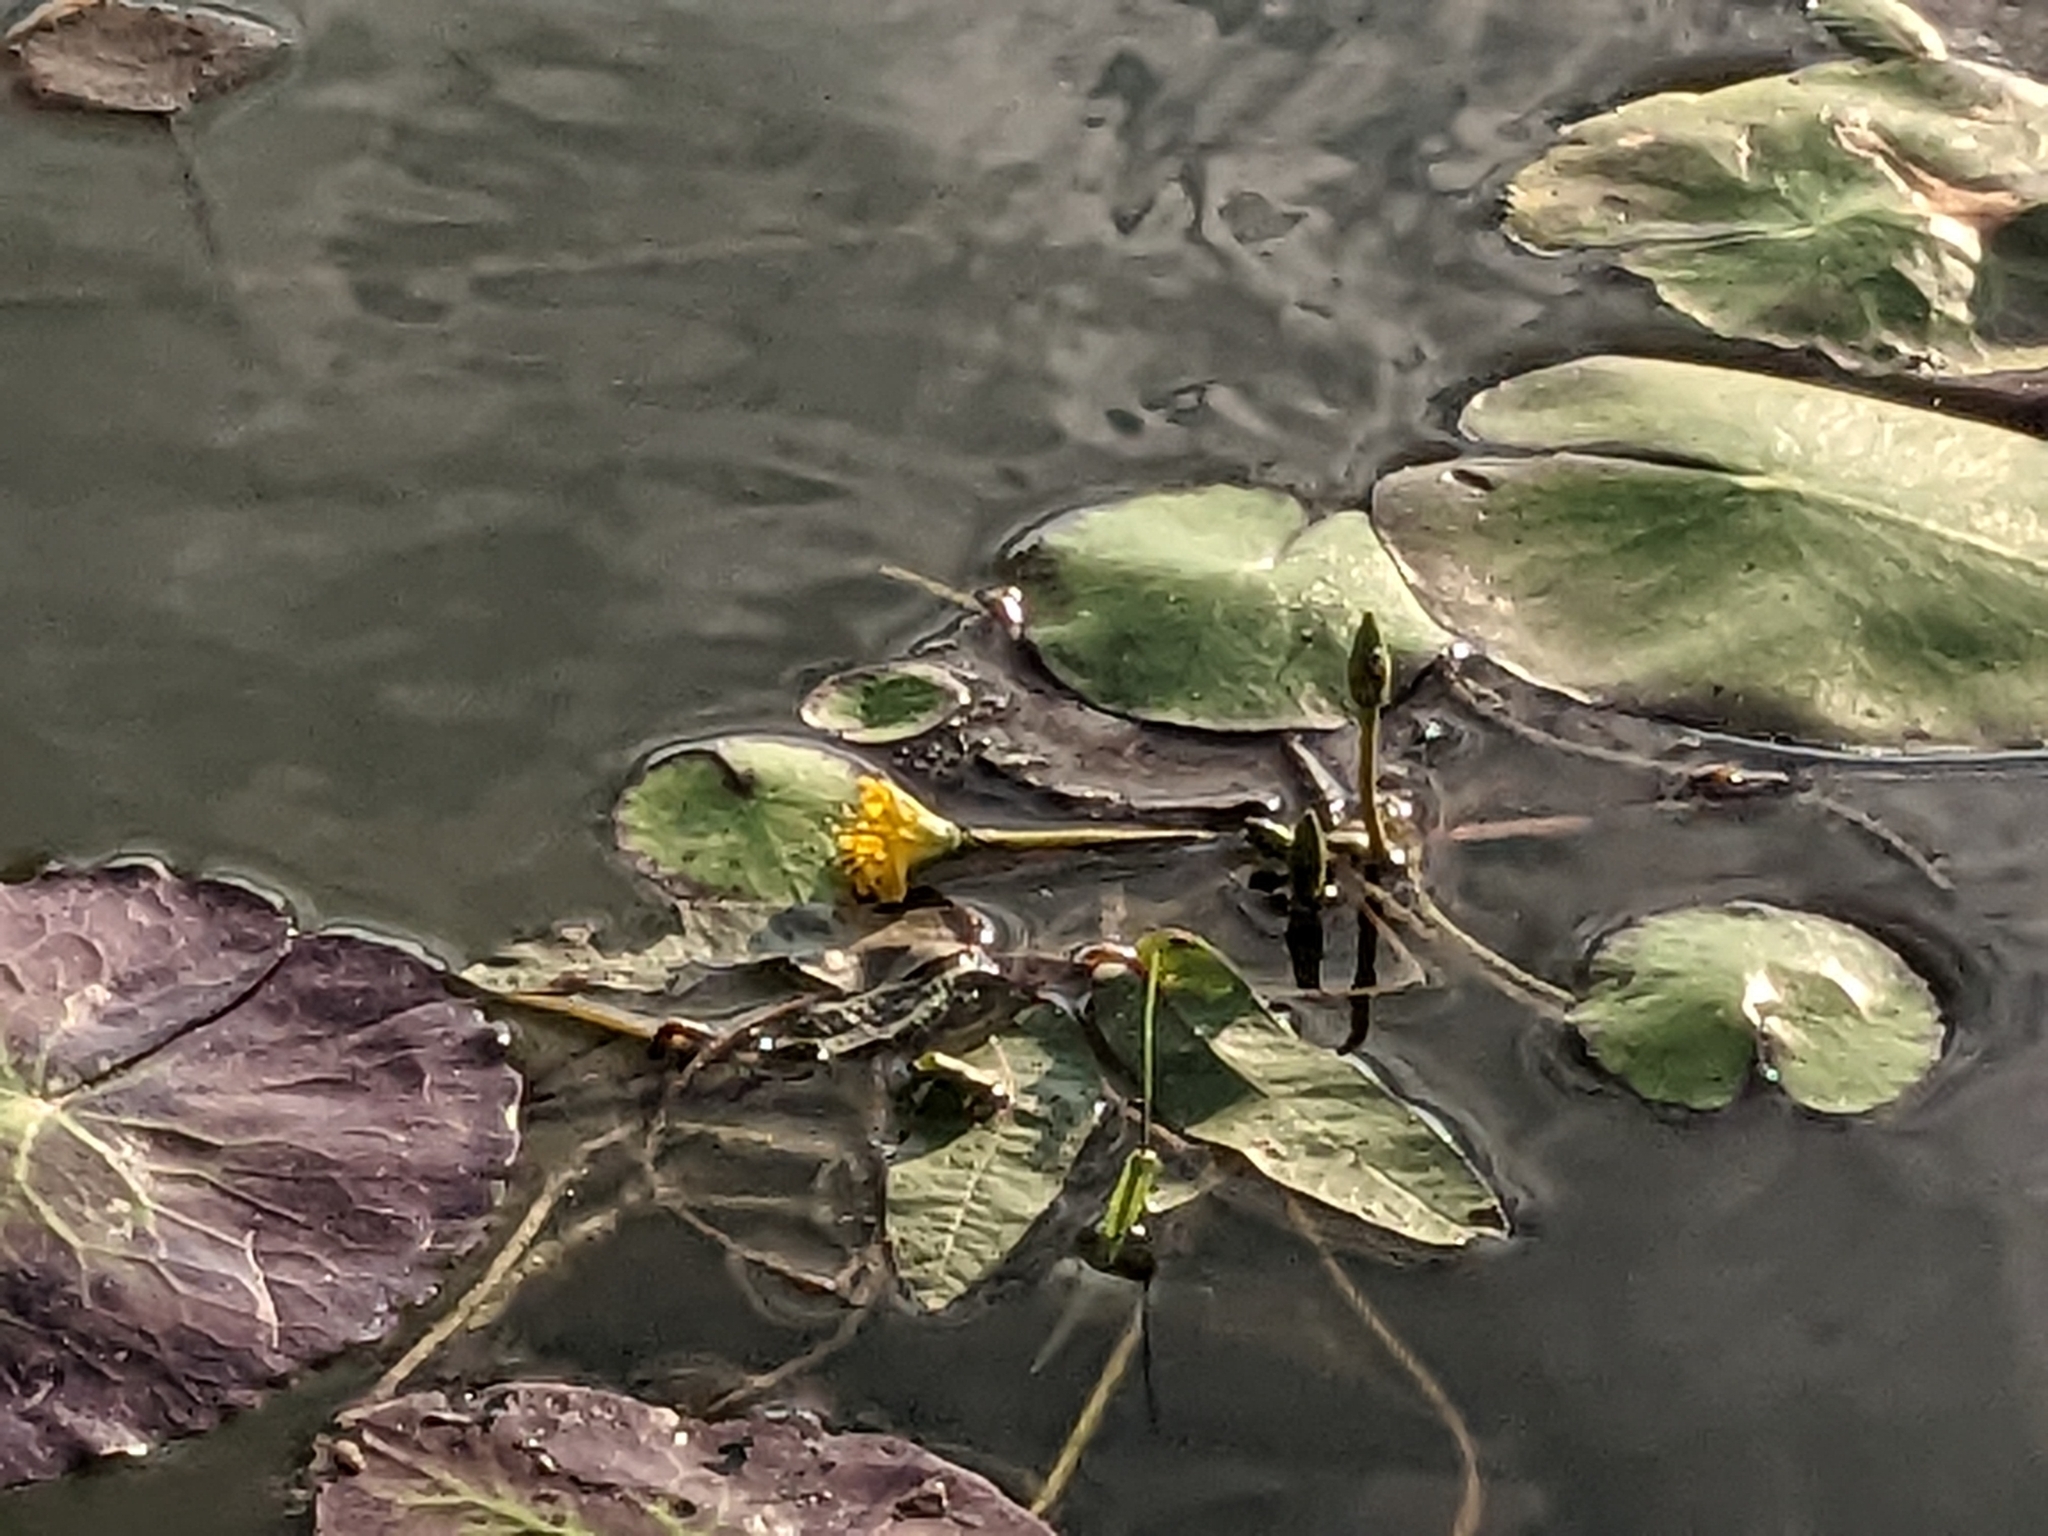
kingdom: Plantae
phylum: Tracheophyta
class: Magnoliopsida
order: Asterales
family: Menyanthaceae
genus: Nymphoides
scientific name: Nymphoides peltata
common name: Fringed water-lily
